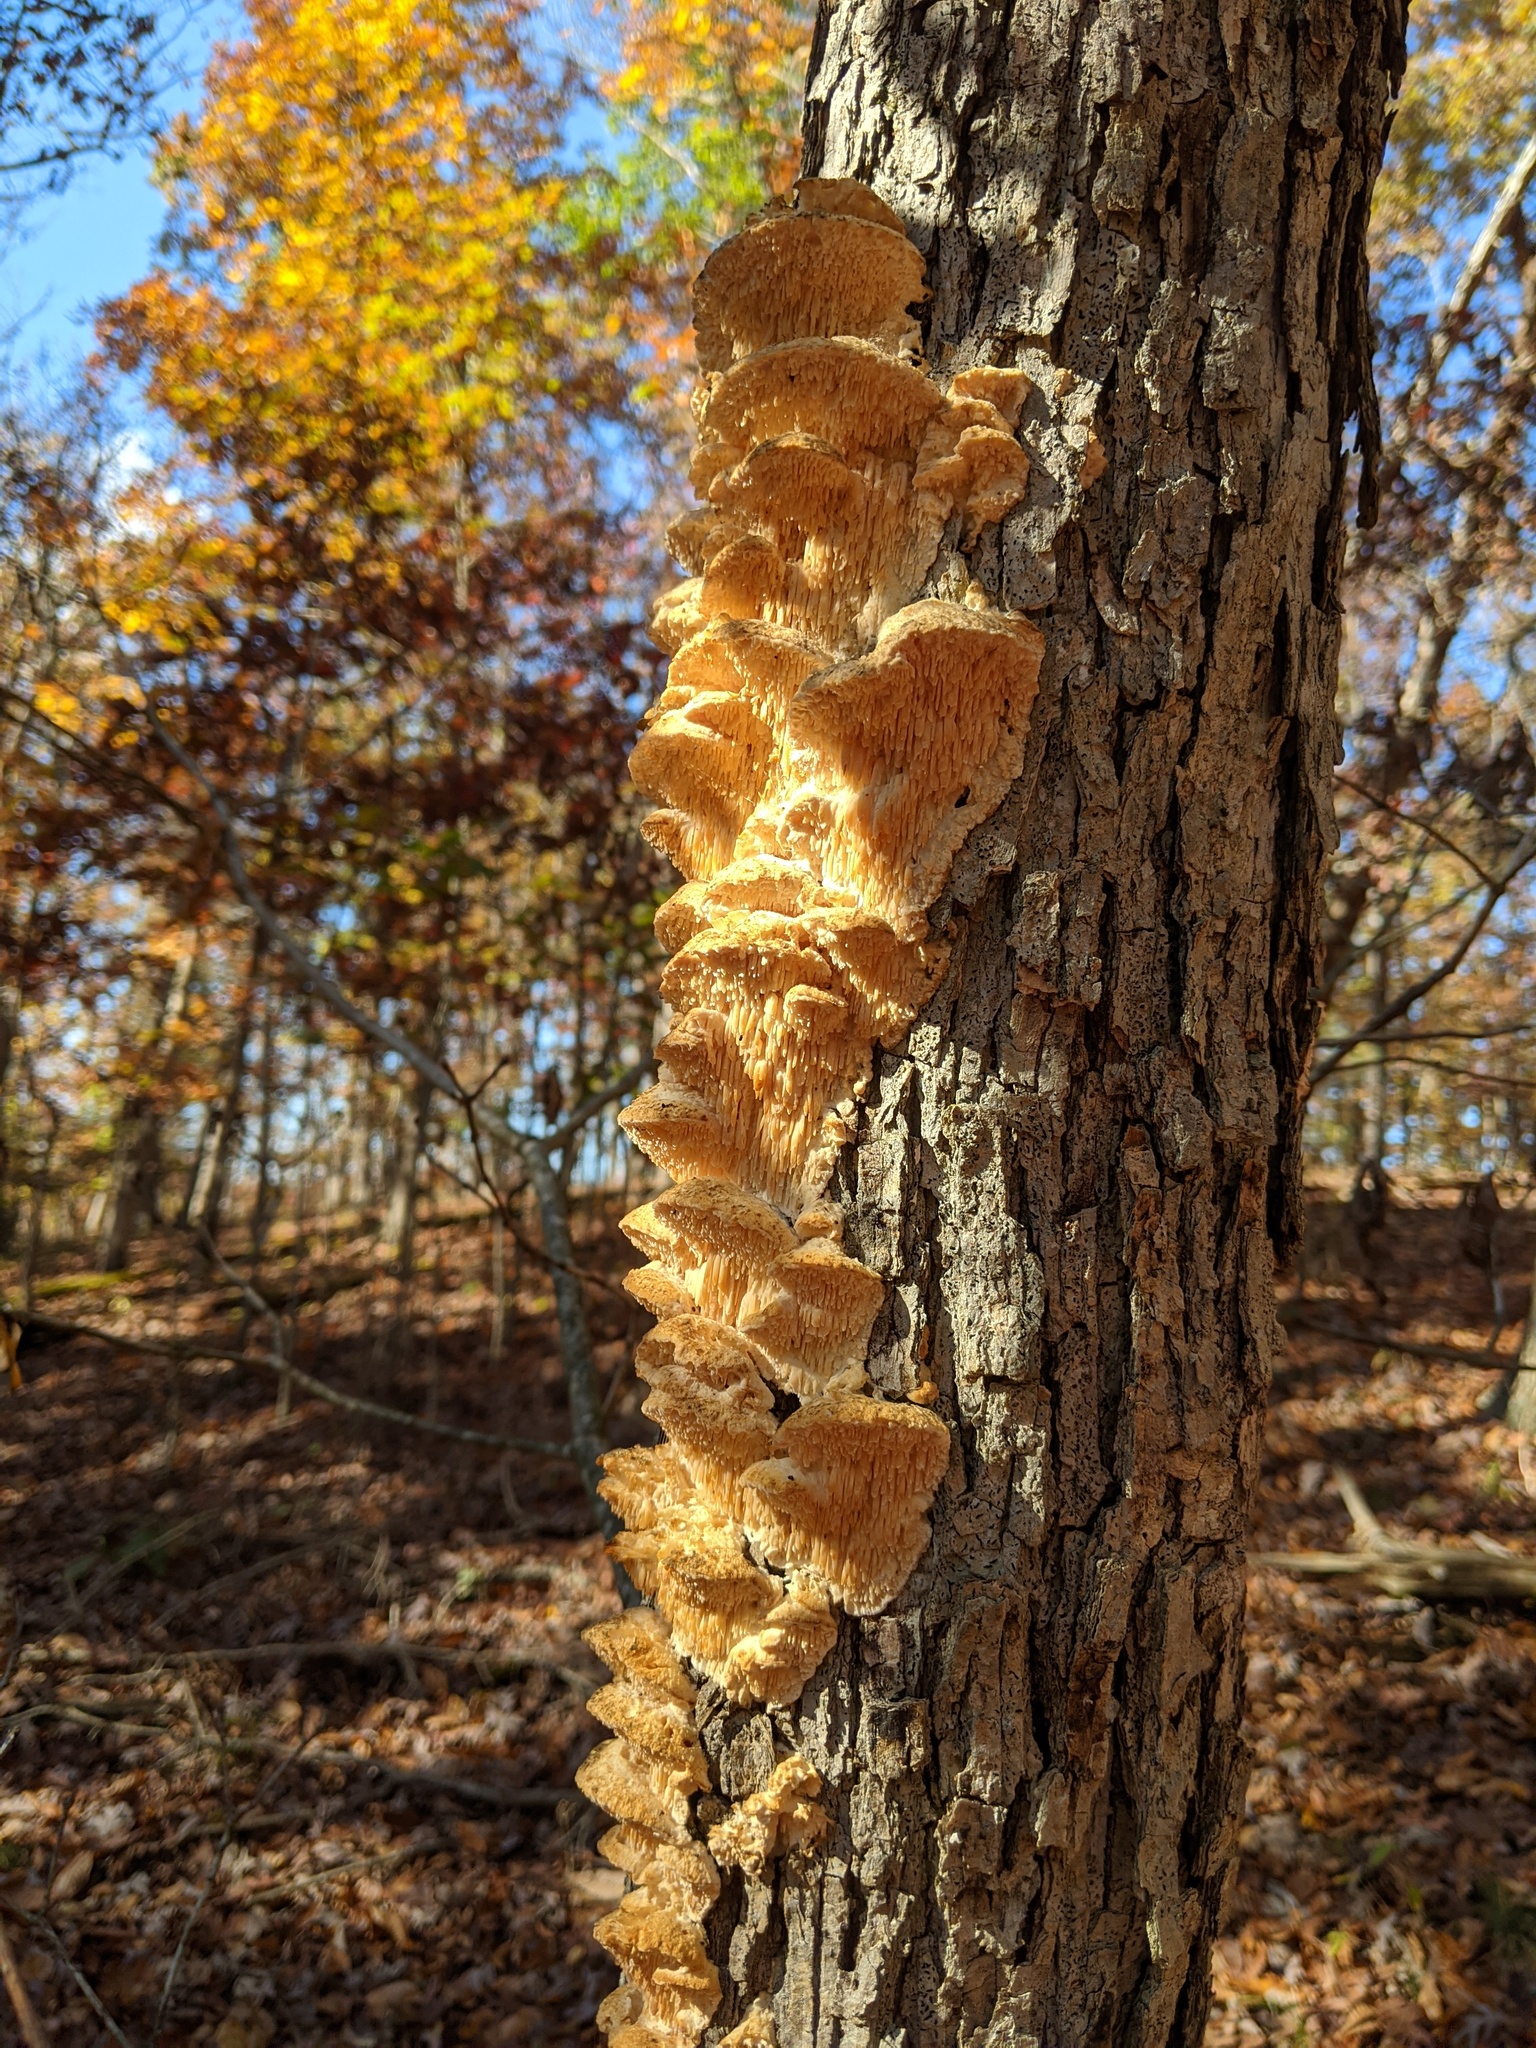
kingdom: Fungi
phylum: Basidiomycota
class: Agaricomycetes
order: Polyporales
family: Meruliaceae
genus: Irpiciporus
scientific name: Irpiciporus pachyodon
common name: Marshmallow polypore
